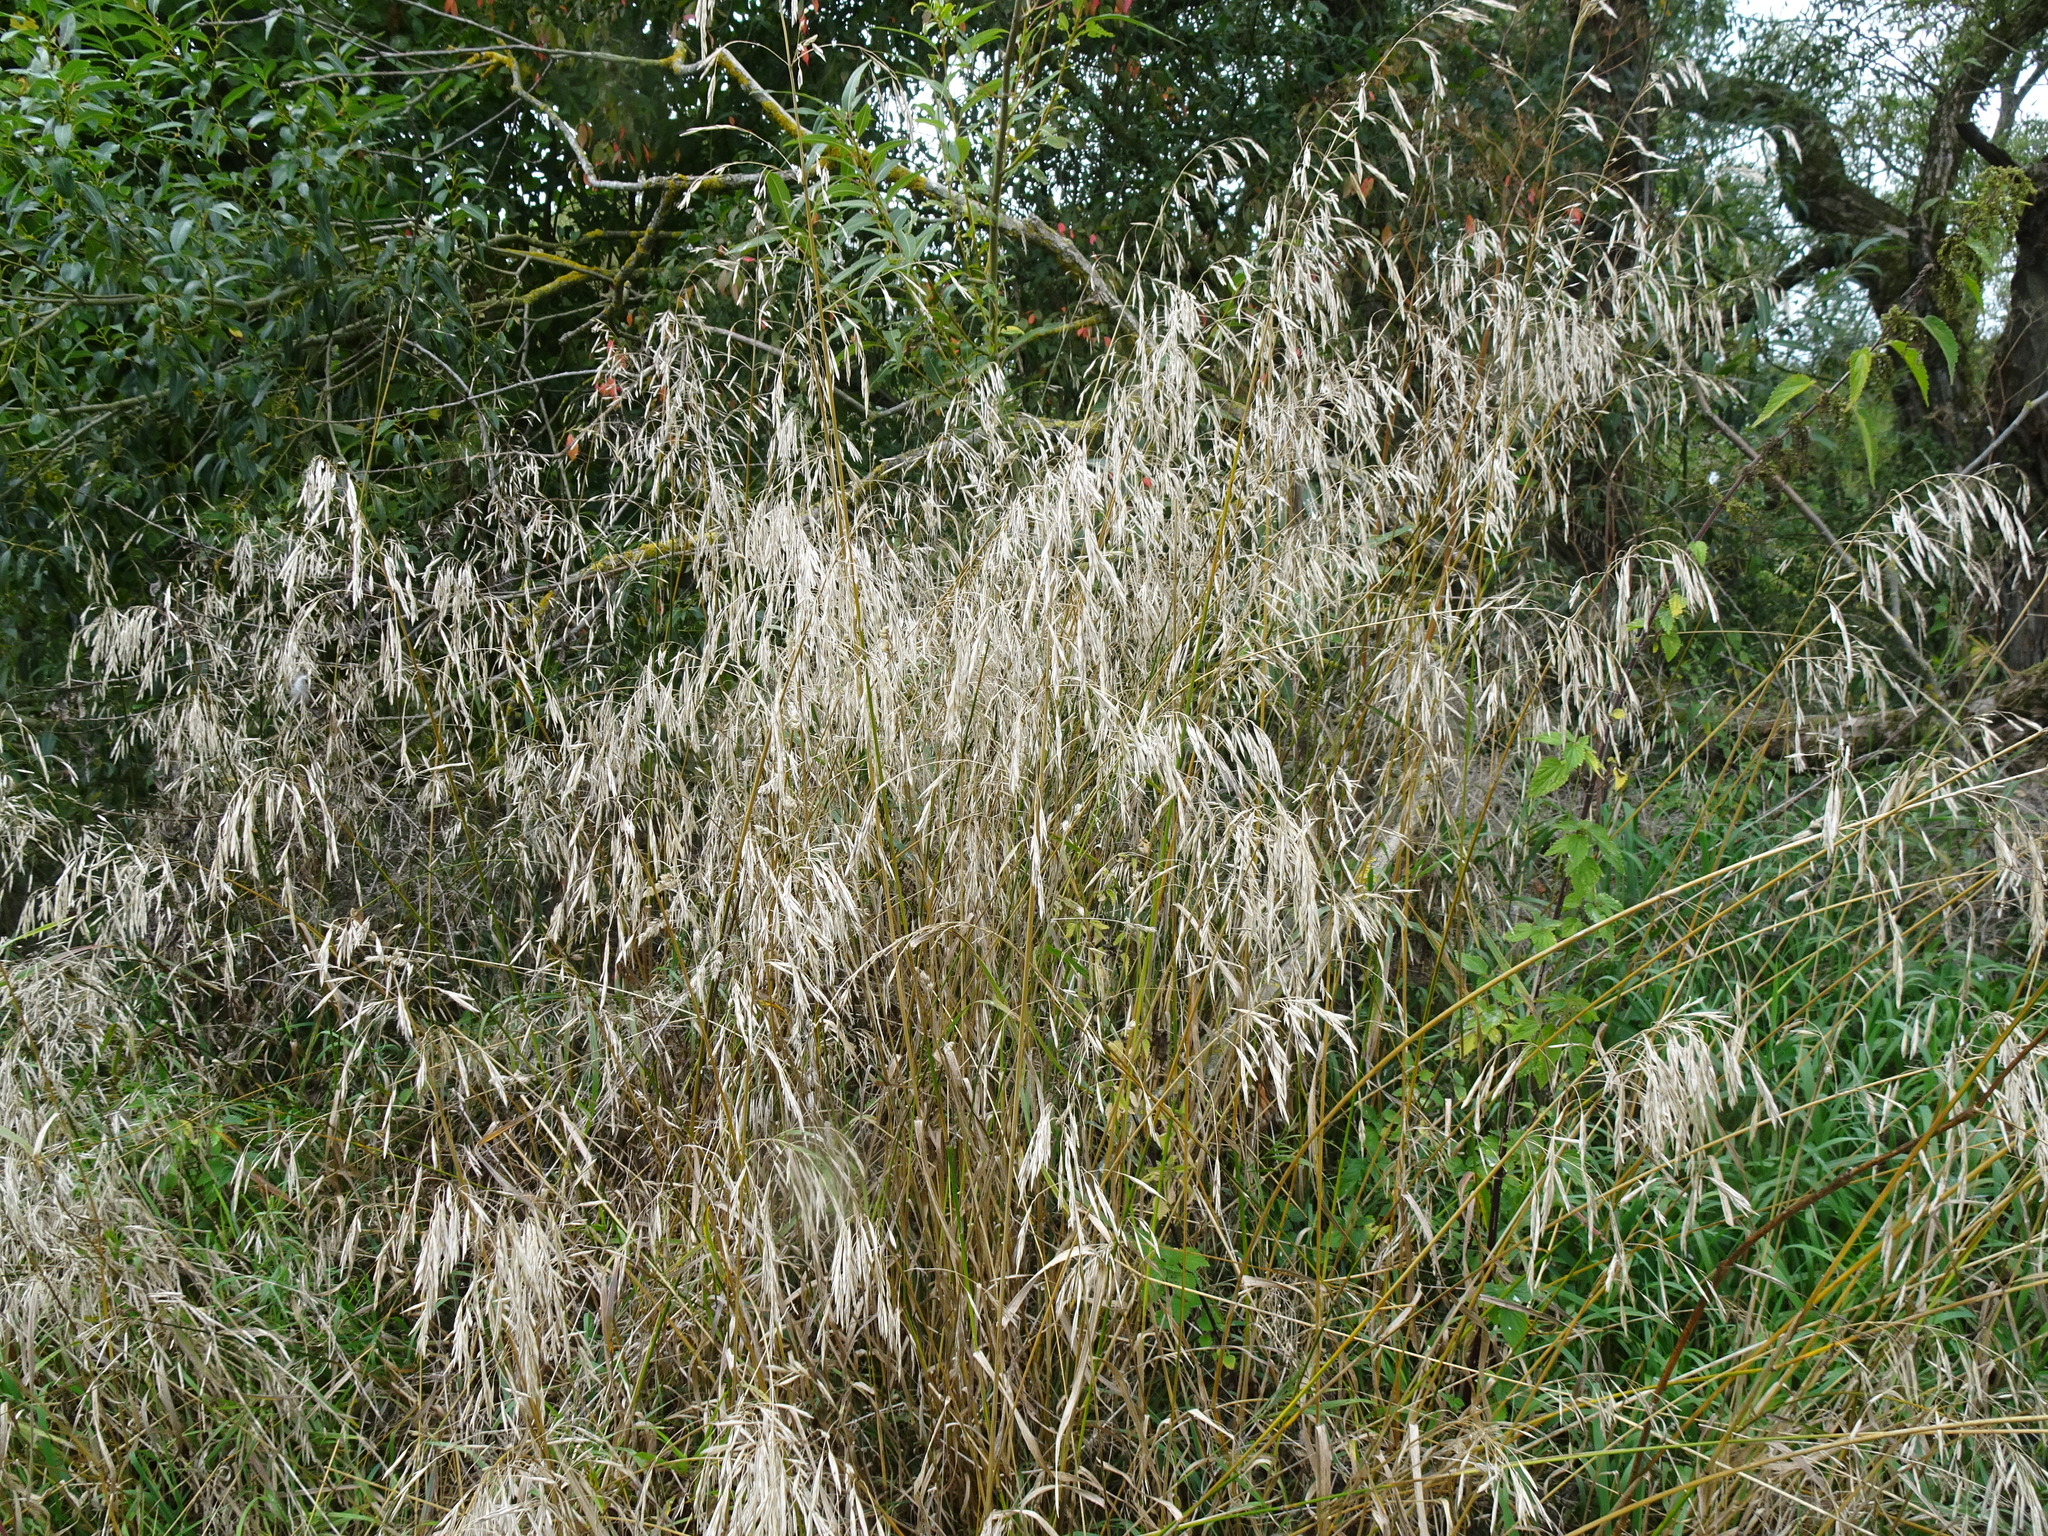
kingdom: Plantae
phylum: Tracheophyta
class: Liliopsida
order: Poales
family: Poaceae
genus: Bromus
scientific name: Bromus inermis
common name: Smooth brome
